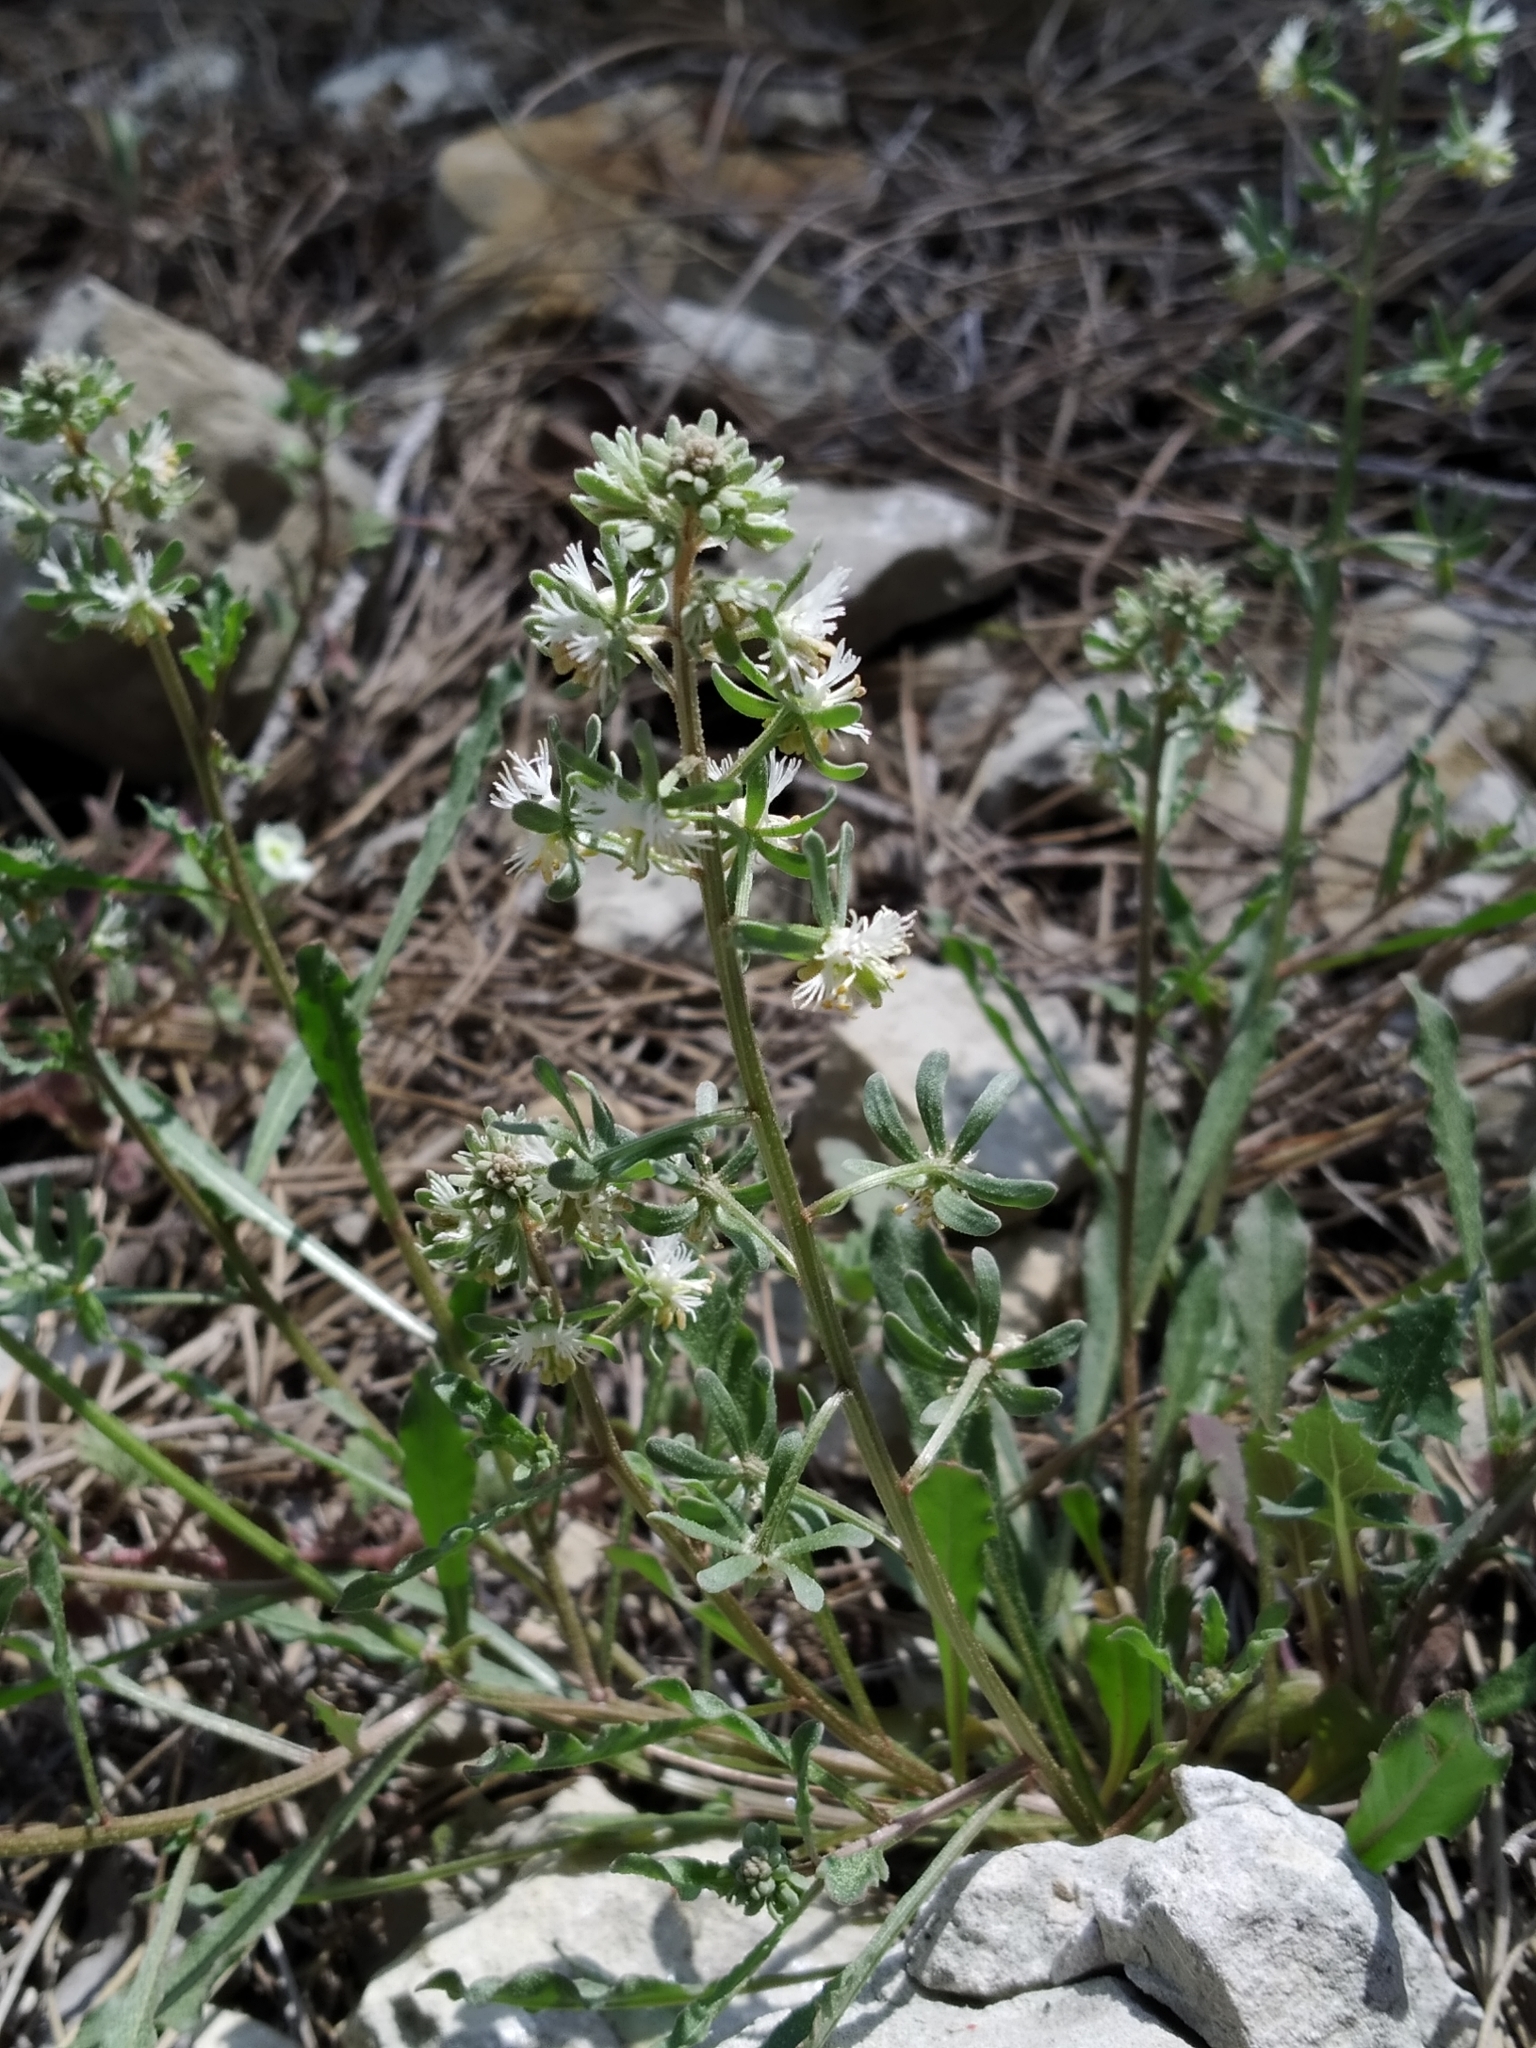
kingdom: Plantae
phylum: Tracheophyta
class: Magnoliopsida
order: Brassicales
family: Resedaceae
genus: Reseda
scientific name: Reseda phyteuma
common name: Corn mignonette
